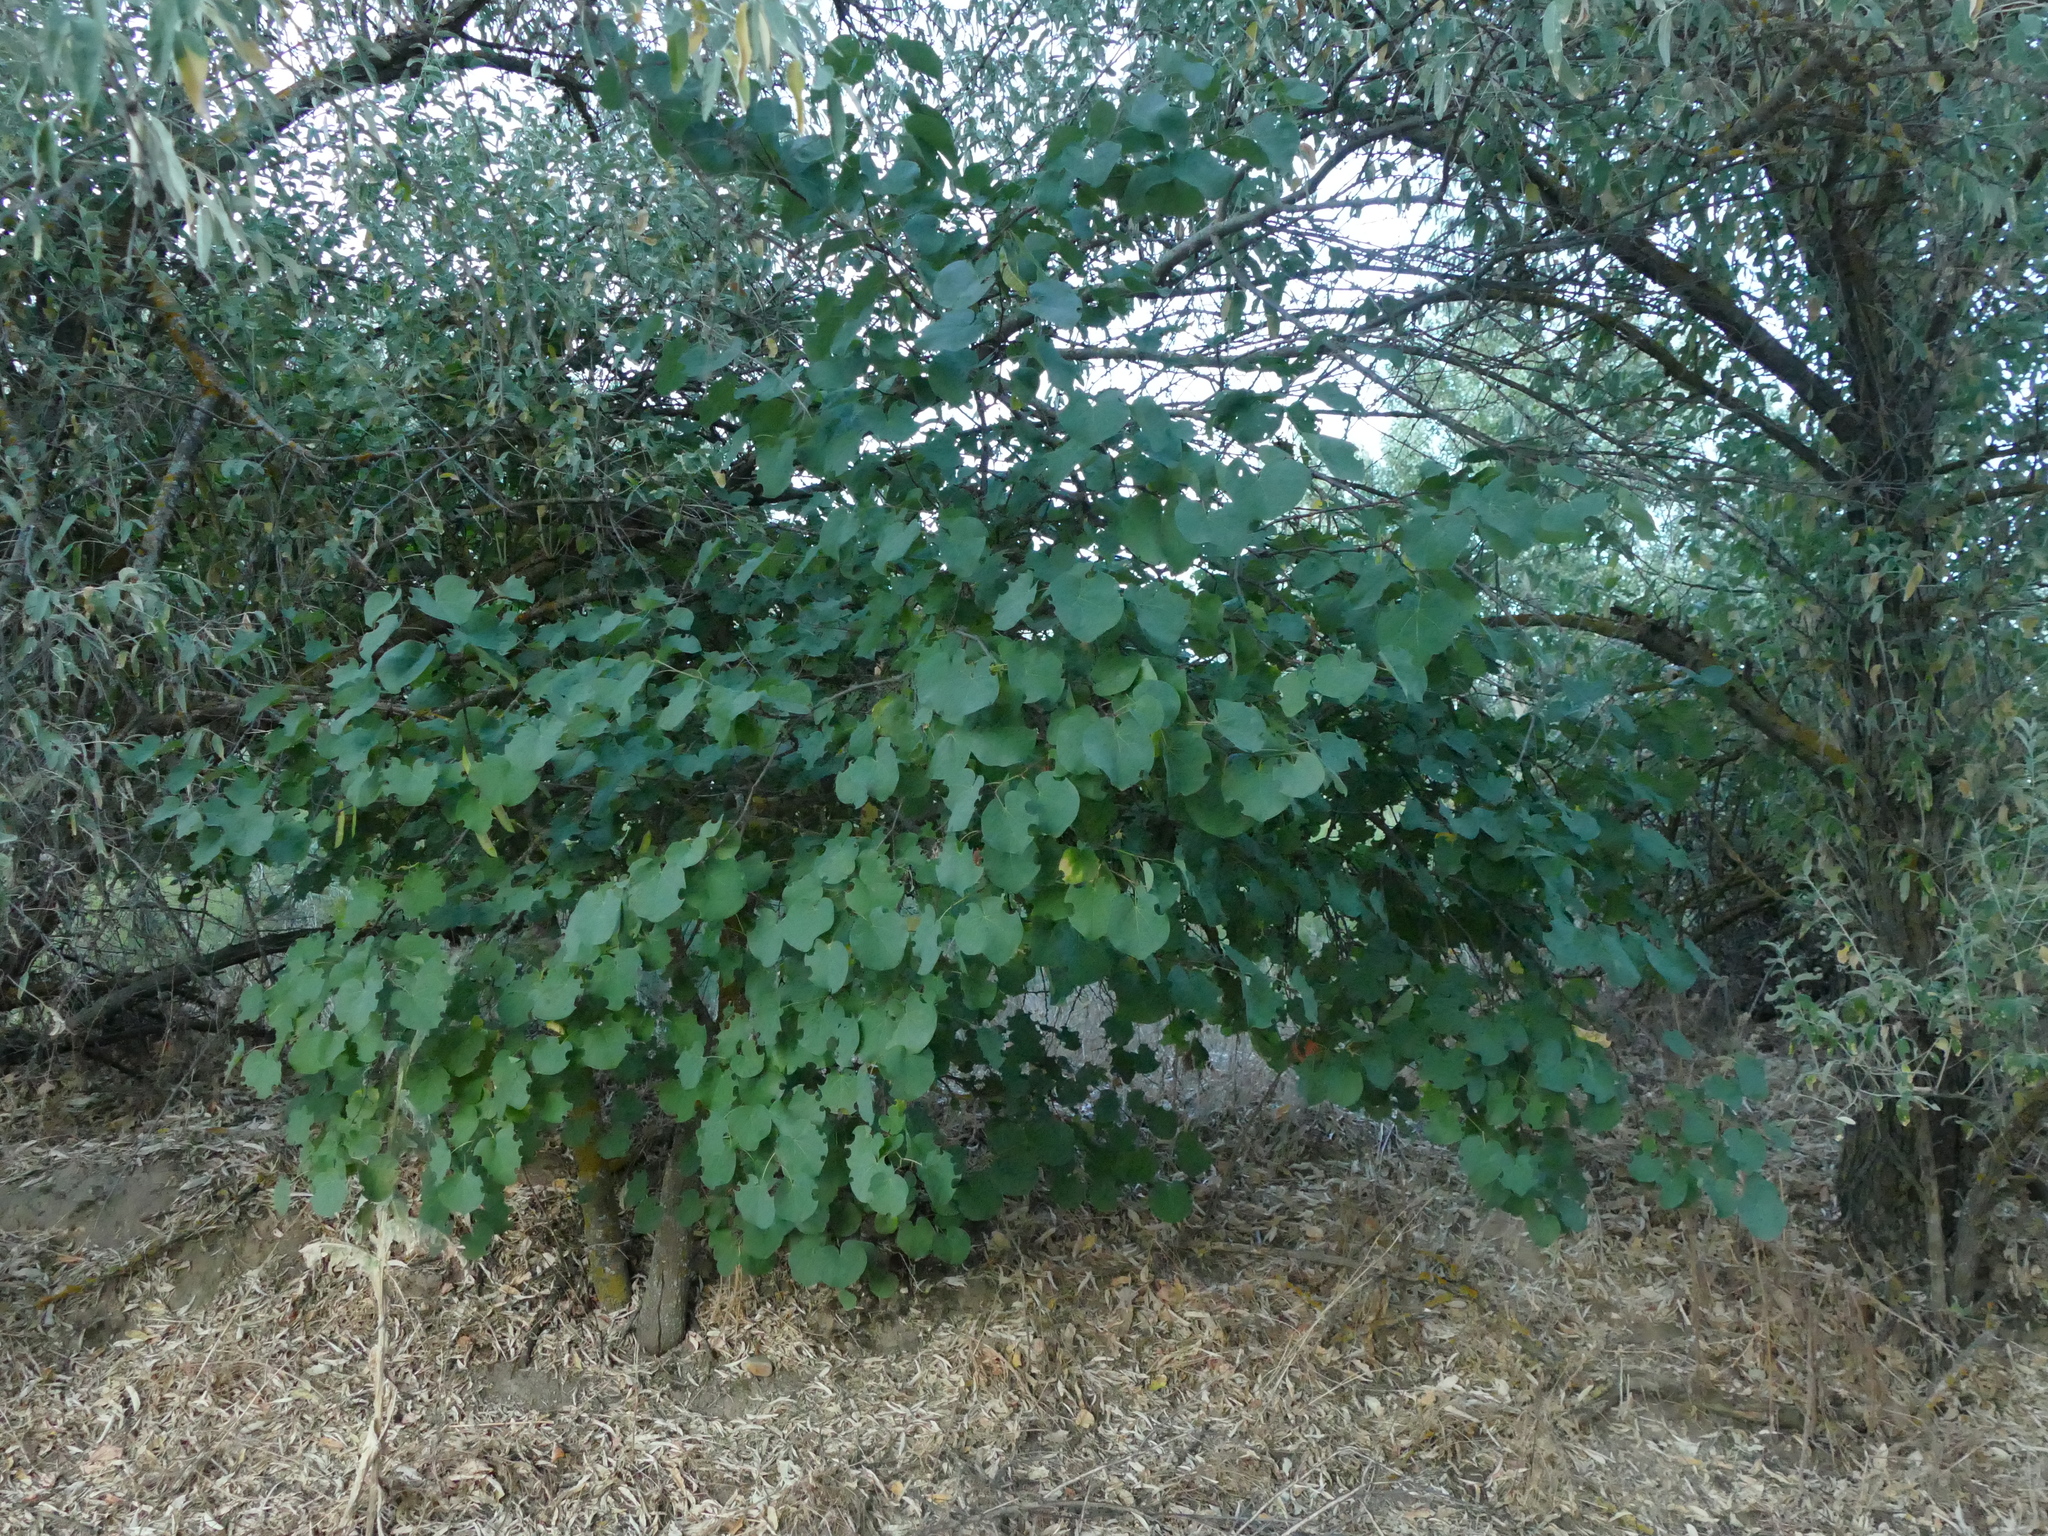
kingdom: Plantae
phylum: Tracheophyta
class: Magnoliopsida
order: Fabales
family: Fabaceae
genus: Cercis
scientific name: Cercis siliquastrum
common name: Judas tree
